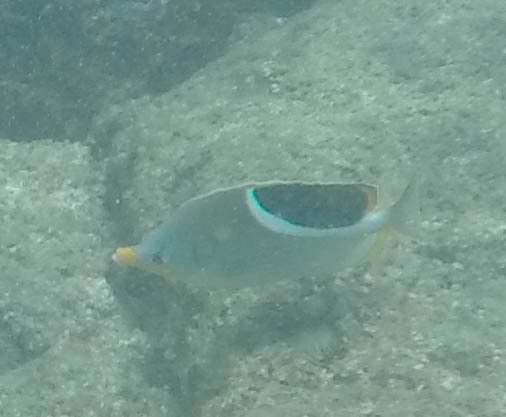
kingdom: Animalia
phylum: Chordata
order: Perciformes
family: Chaetodontidae
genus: Chaetodon
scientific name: Chaetodon ephippium
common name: Saddled butterflyfish
